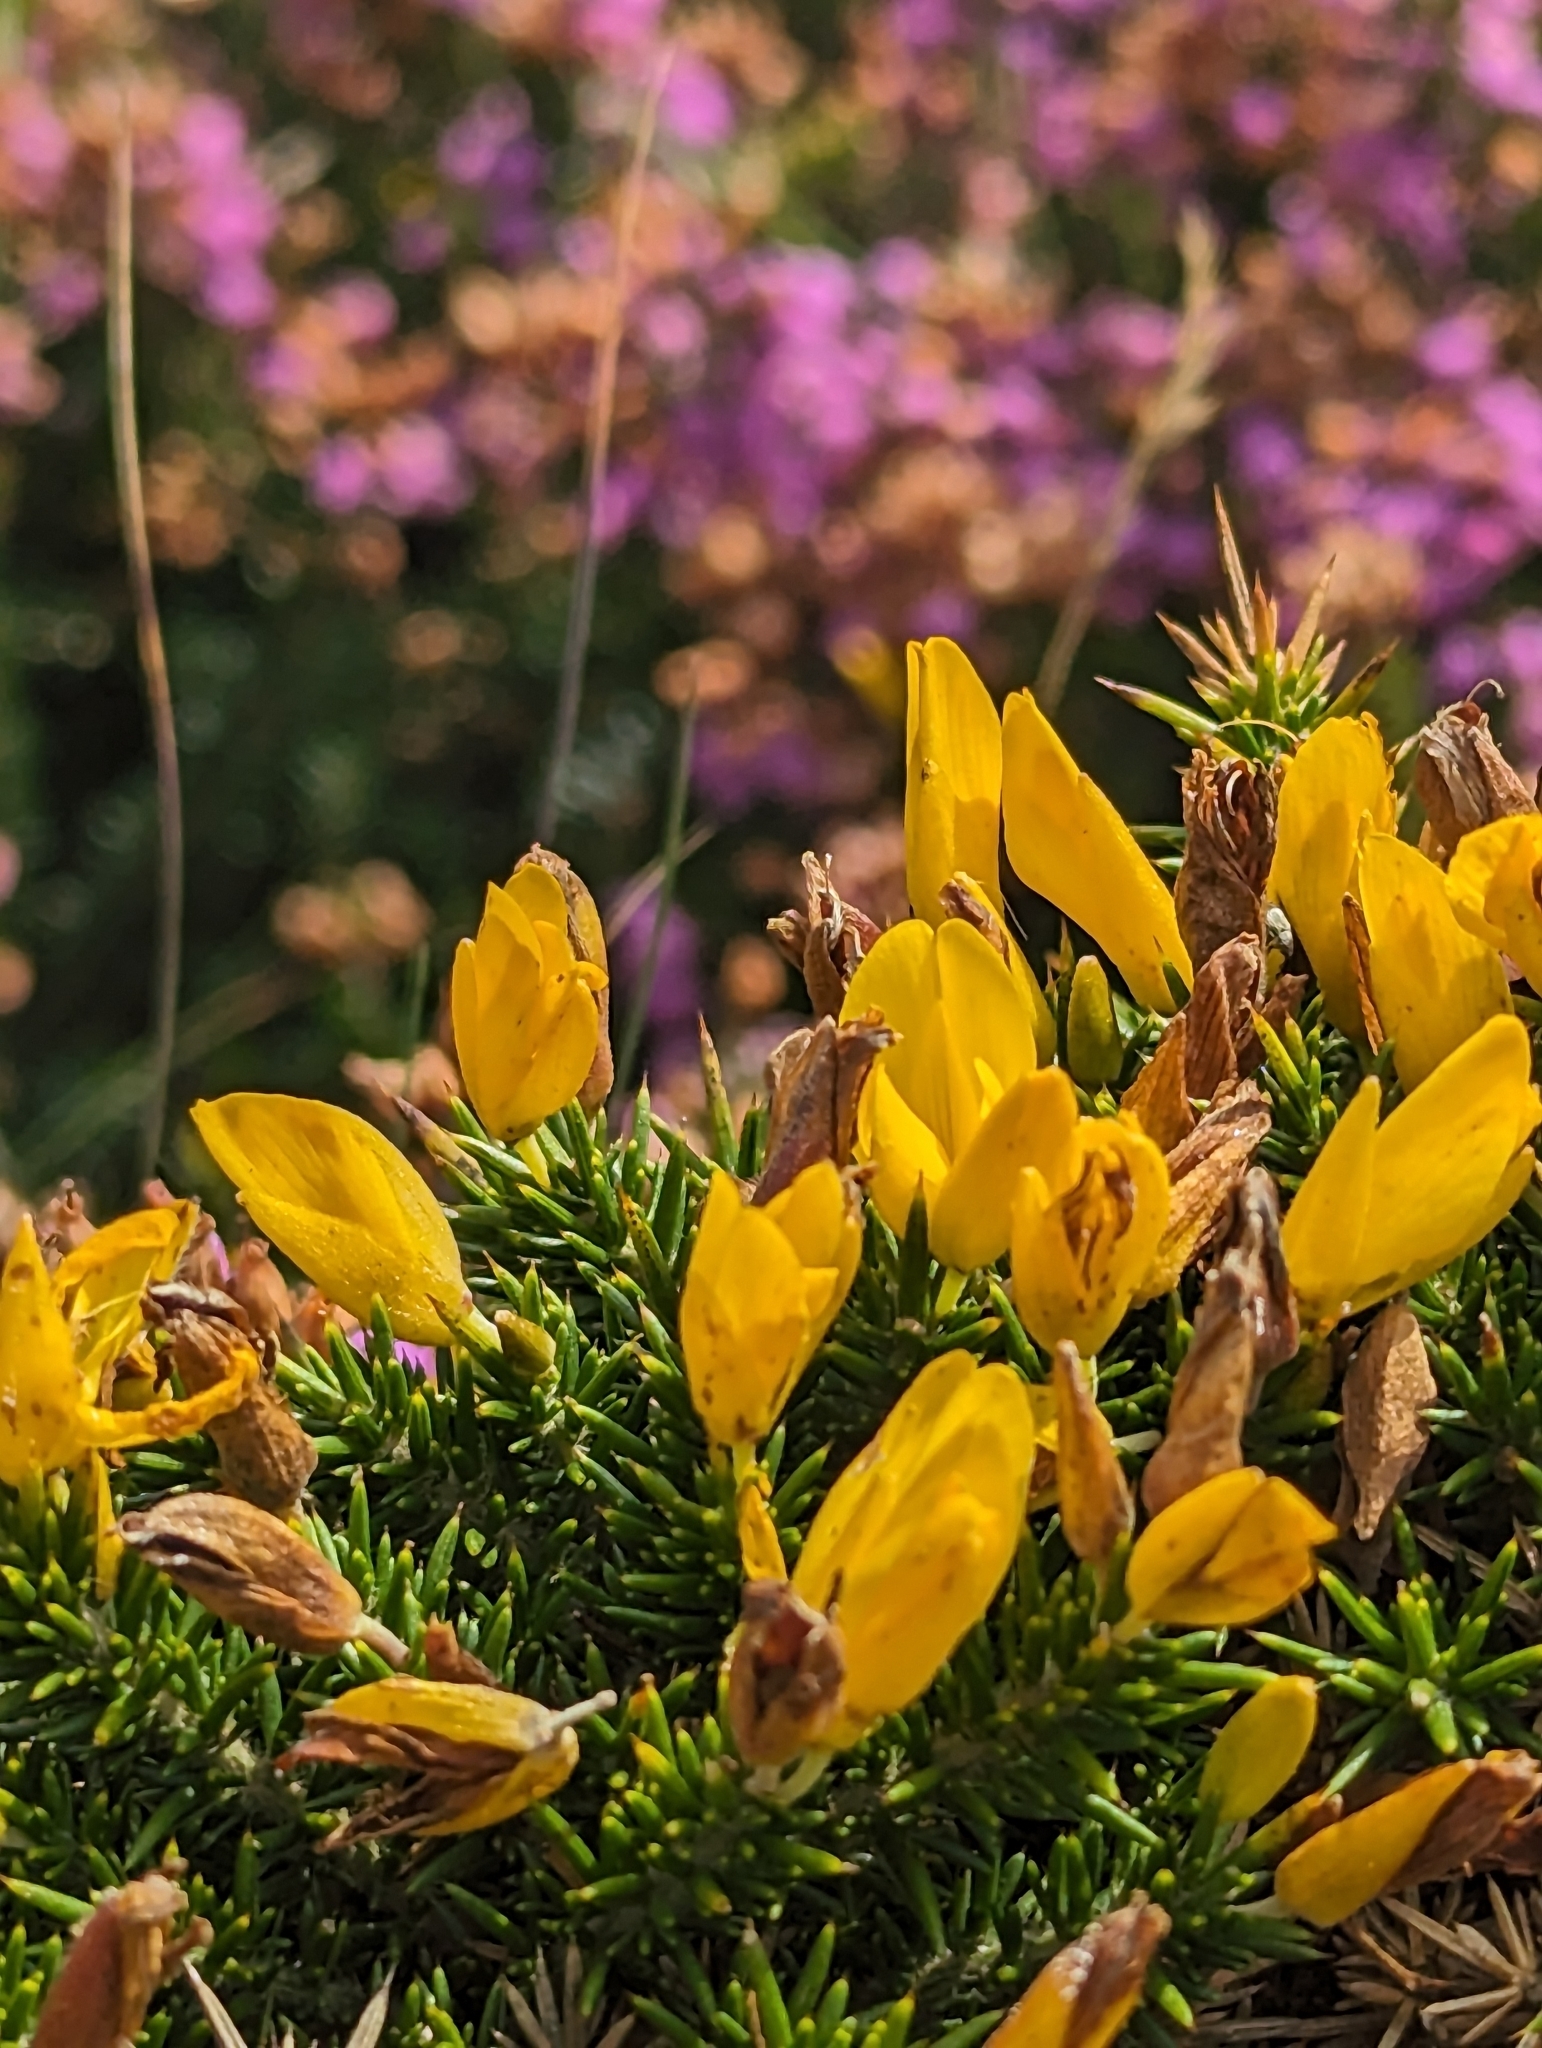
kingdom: Plantae
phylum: Tracheophyta
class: Magnoliopsida
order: Fabales
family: Fabaceae
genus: Ulex
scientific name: Ulex gallii
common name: Western gorse
